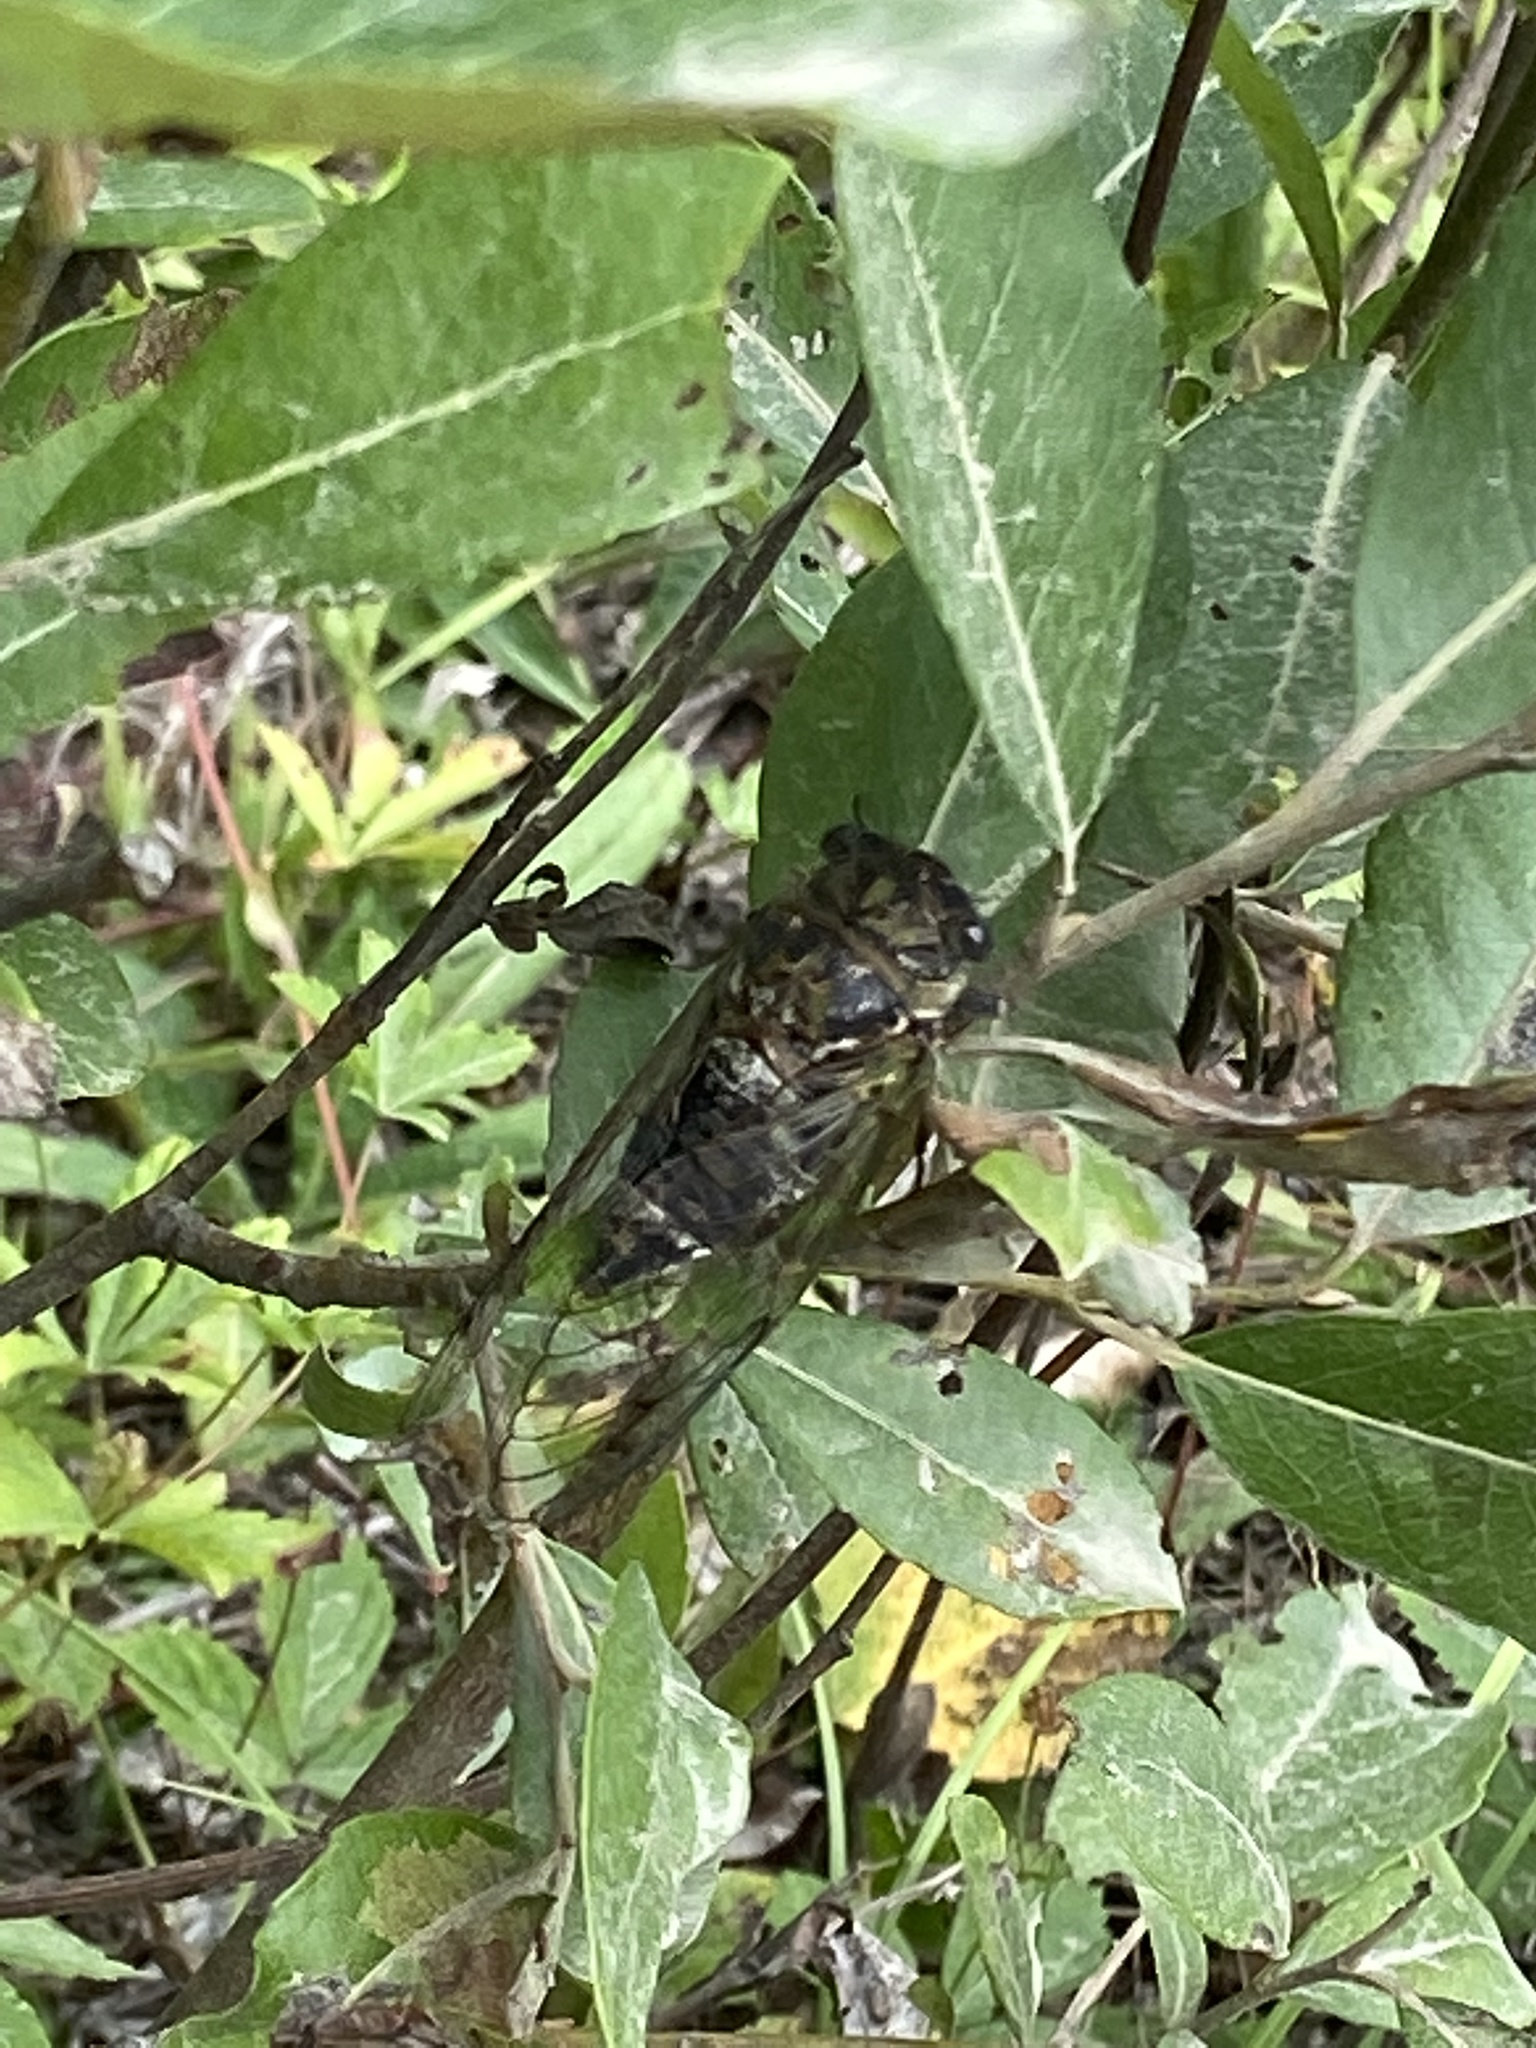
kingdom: Animalia
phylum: Arthropoda
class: Insecta
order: Hemiptera
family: Cicadidae
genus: Neotibicen
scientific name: Neotibicen canicularis
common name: God-day cicada
